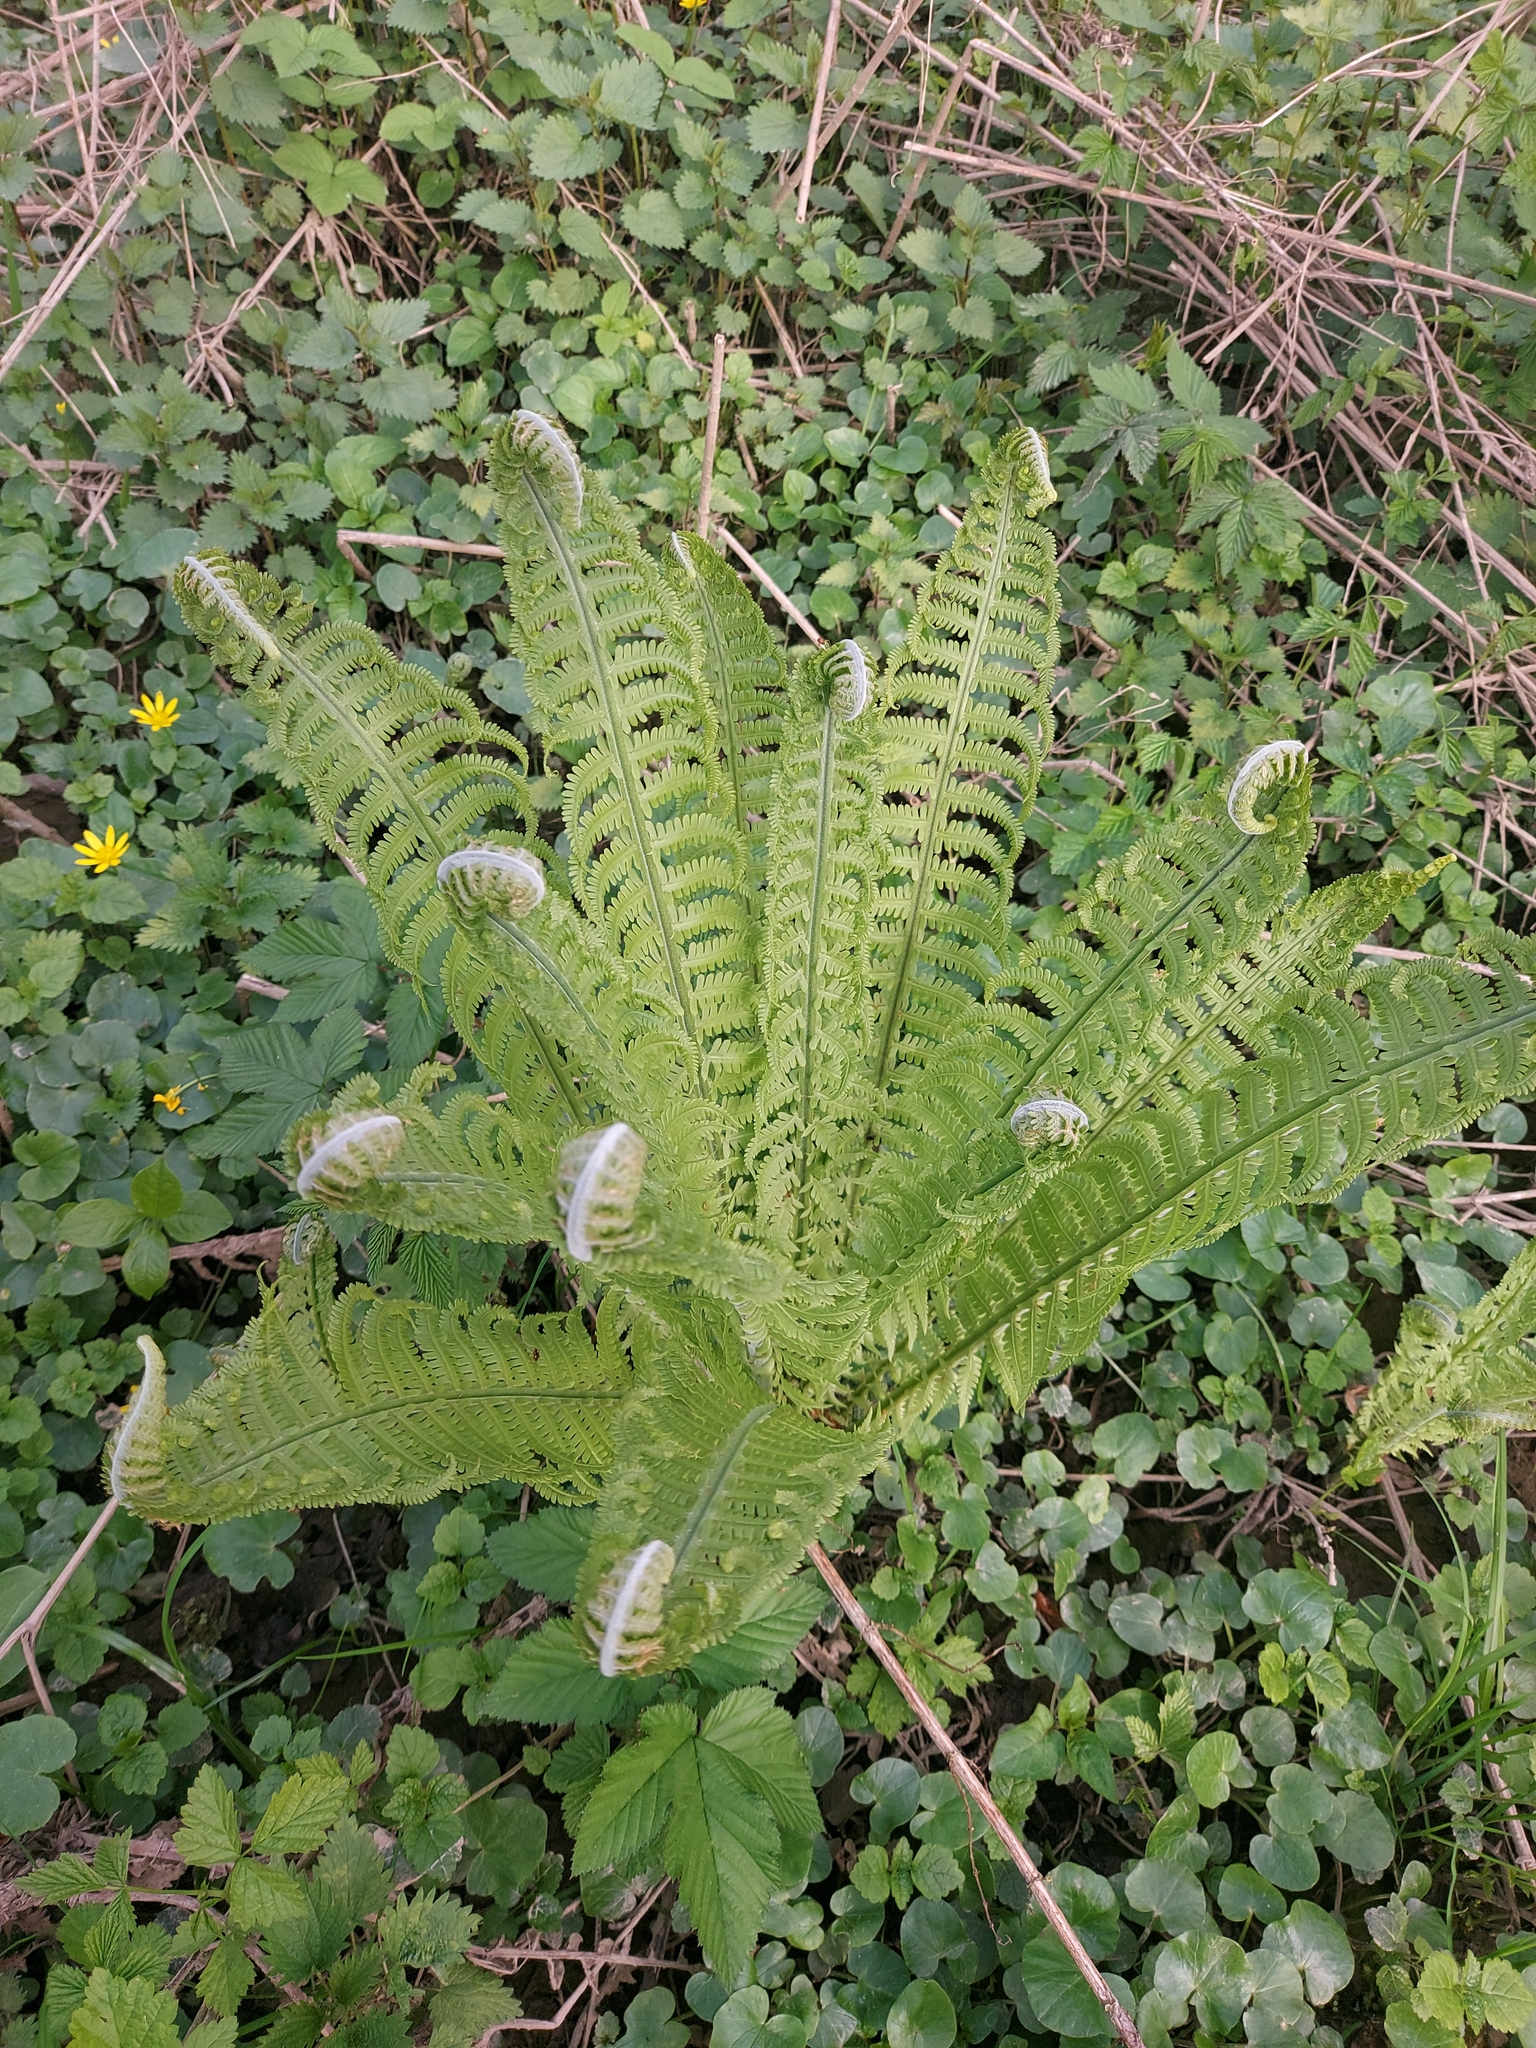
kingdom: Plantae
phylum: Tracheophyta
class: Polypodiopsida
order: Polypodiales
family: Onocleaceae
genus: Matteuccia
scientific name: Matteuccia struthiopteris
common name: Ostrich fern
